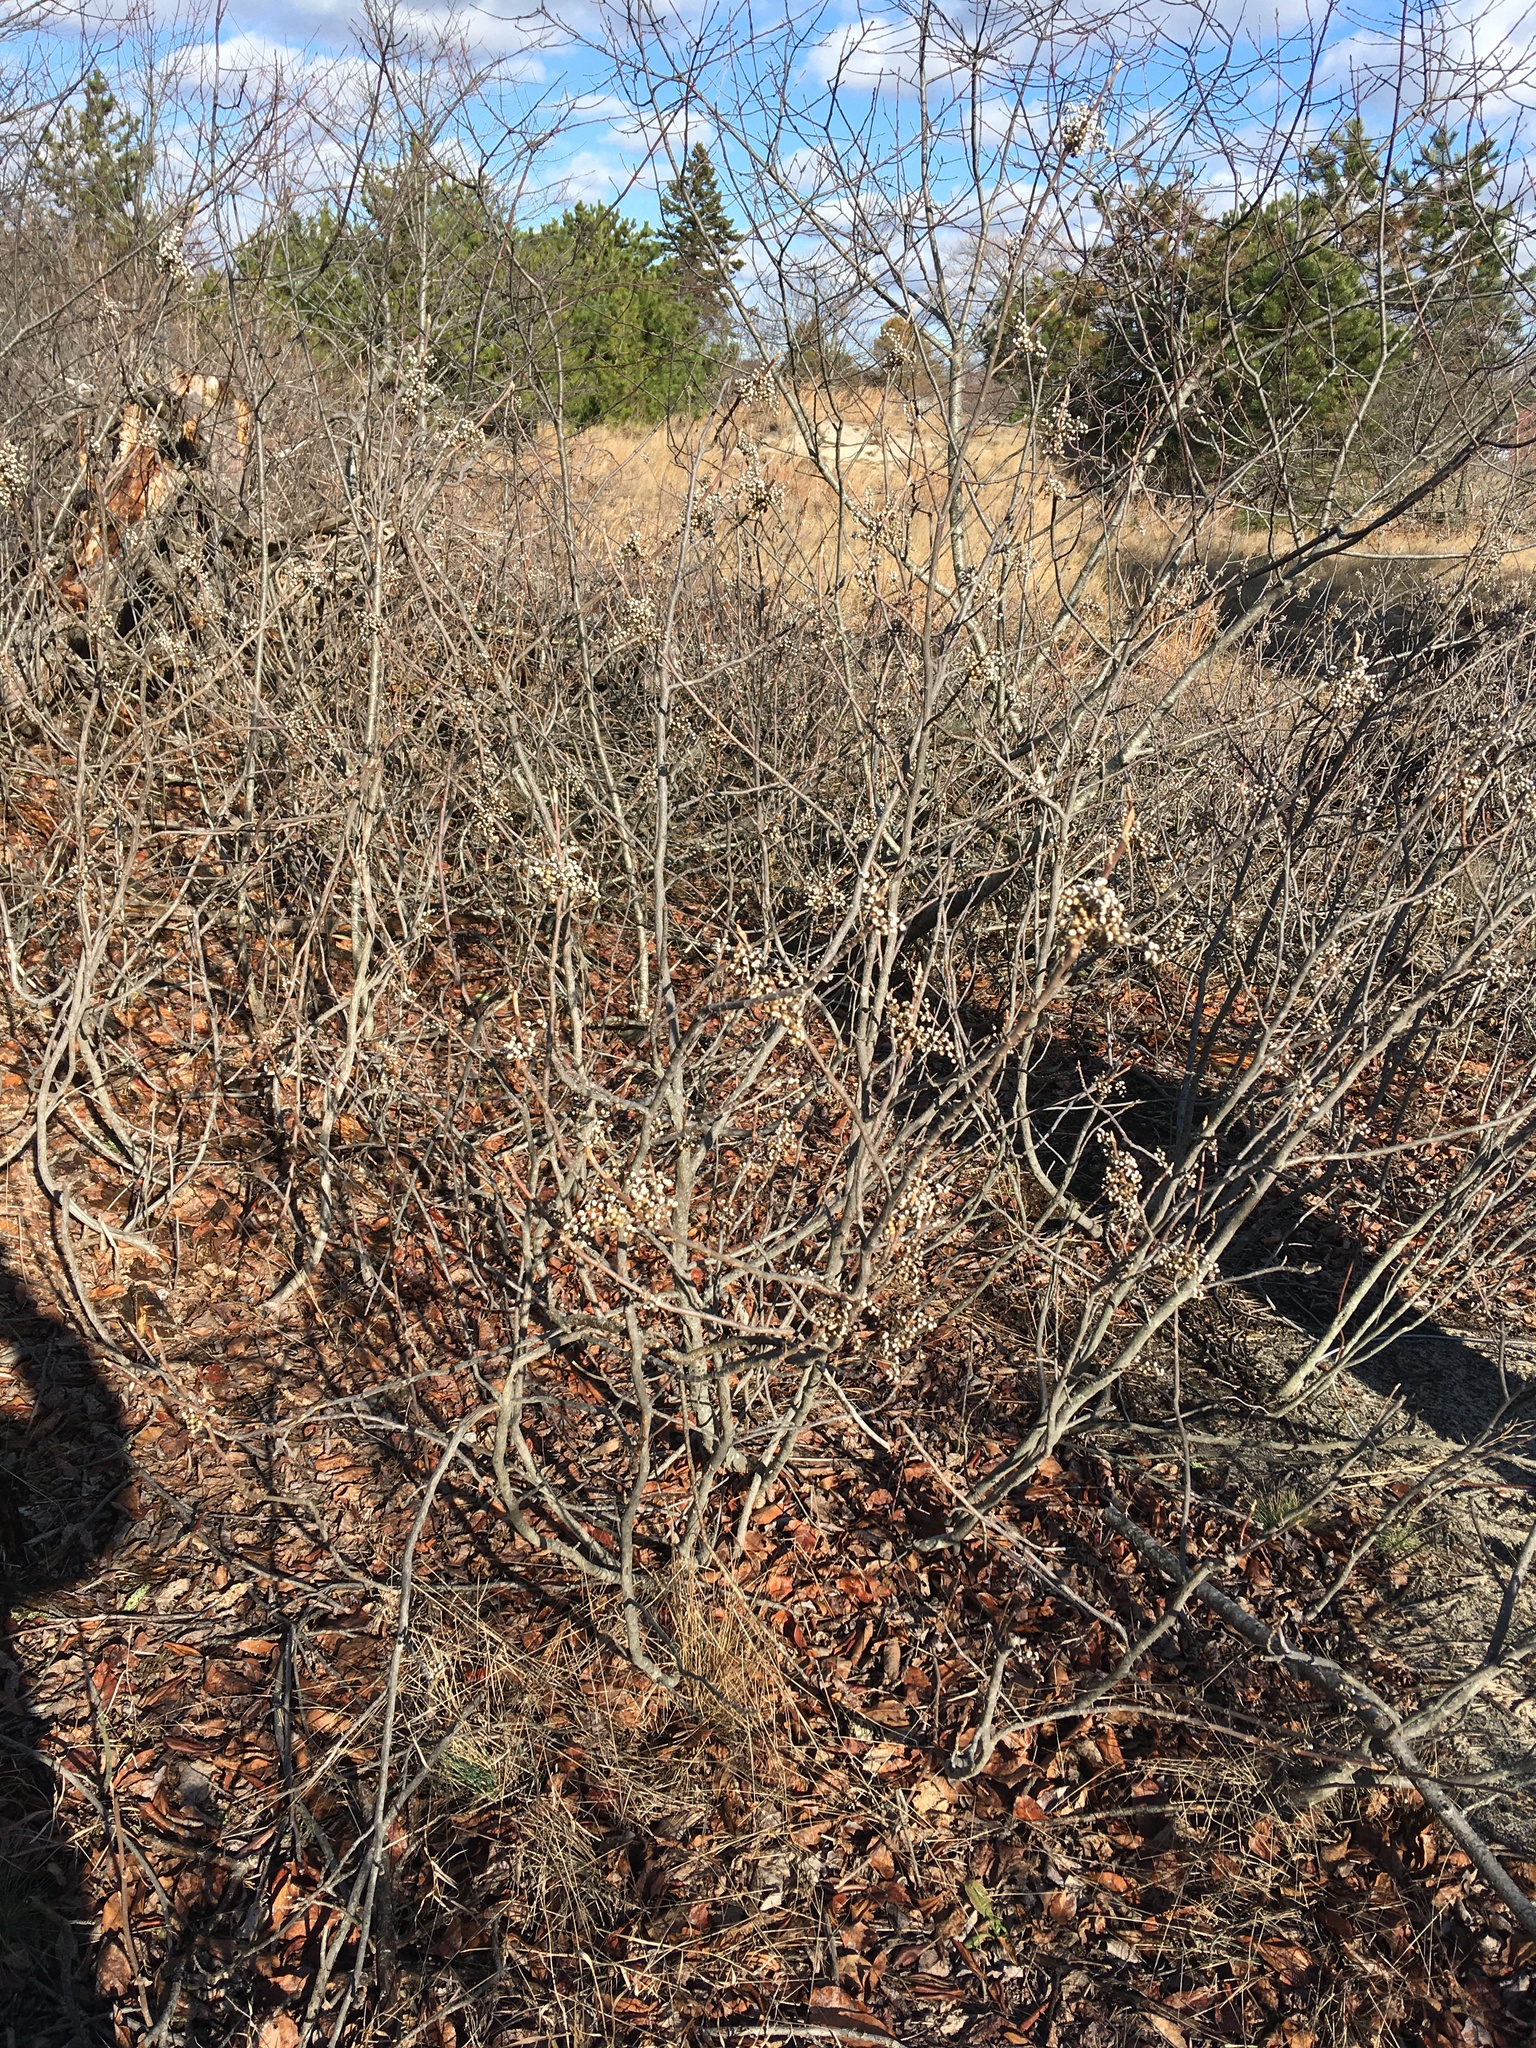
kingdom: Plantae
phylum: Tracheophyta
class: Magnoliopsida
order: Sapindales
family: Anacardiaceae
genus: Toxicodendron
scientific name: Toxicodendron radicans
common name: Poison ivy
